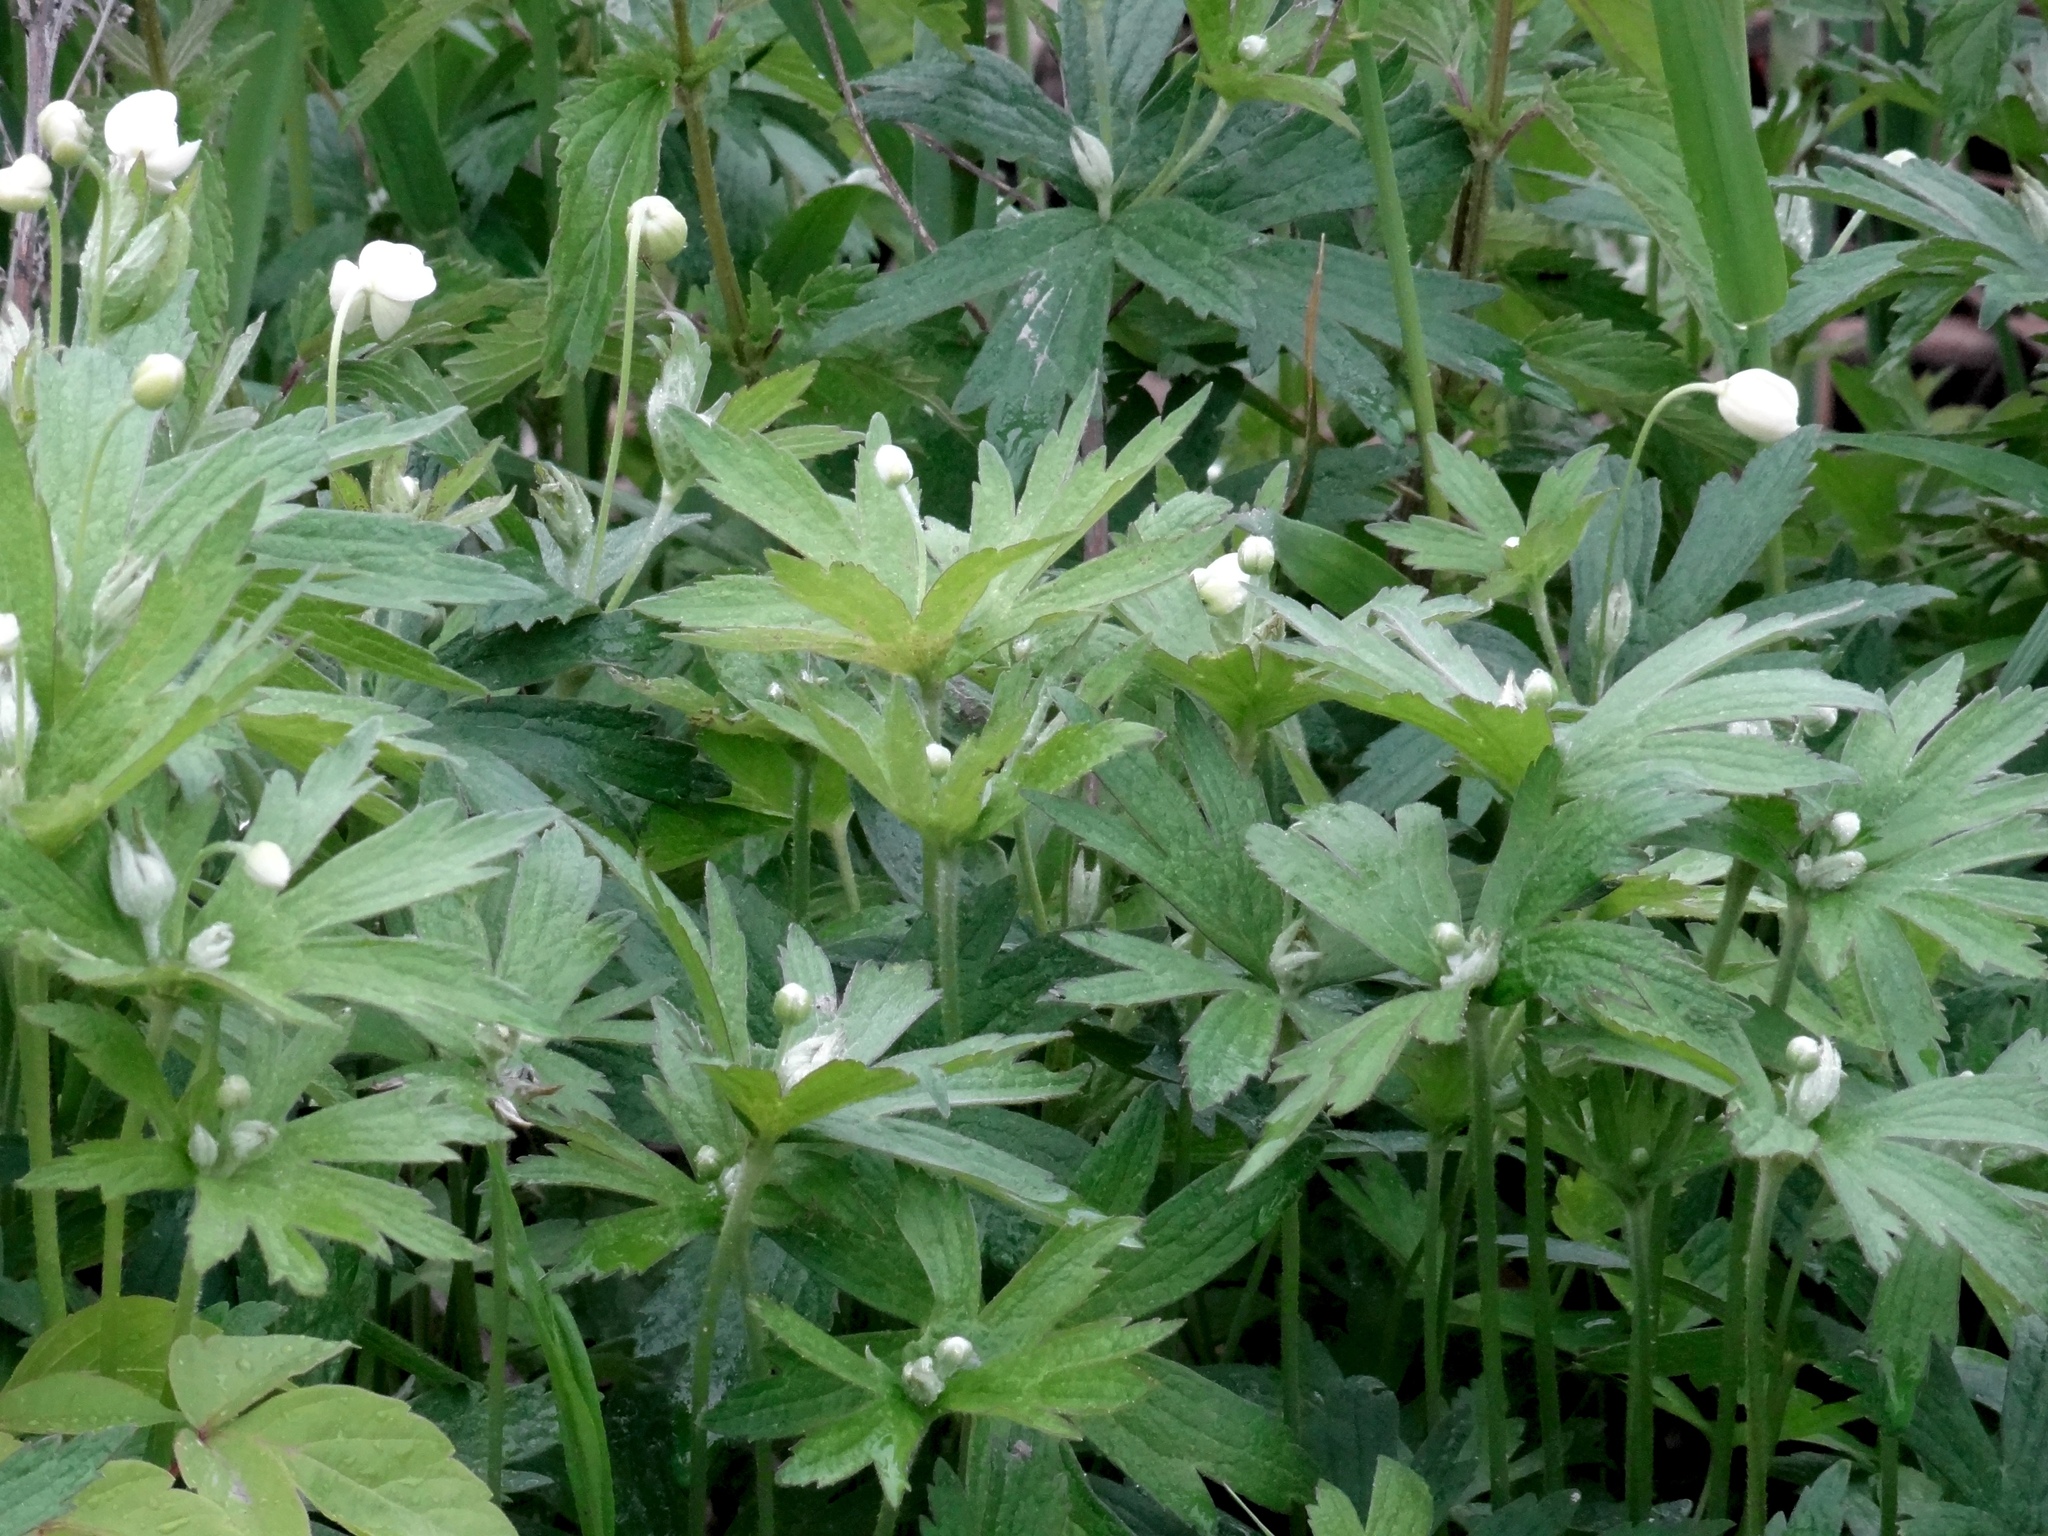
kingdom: Plantae
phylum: Tracheophyta
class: Magnoliopsida
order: Ranunculales
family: Ranunculaceae
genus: Anemonastrum
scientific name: Anemonastrum canadense
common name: Canada anemone
